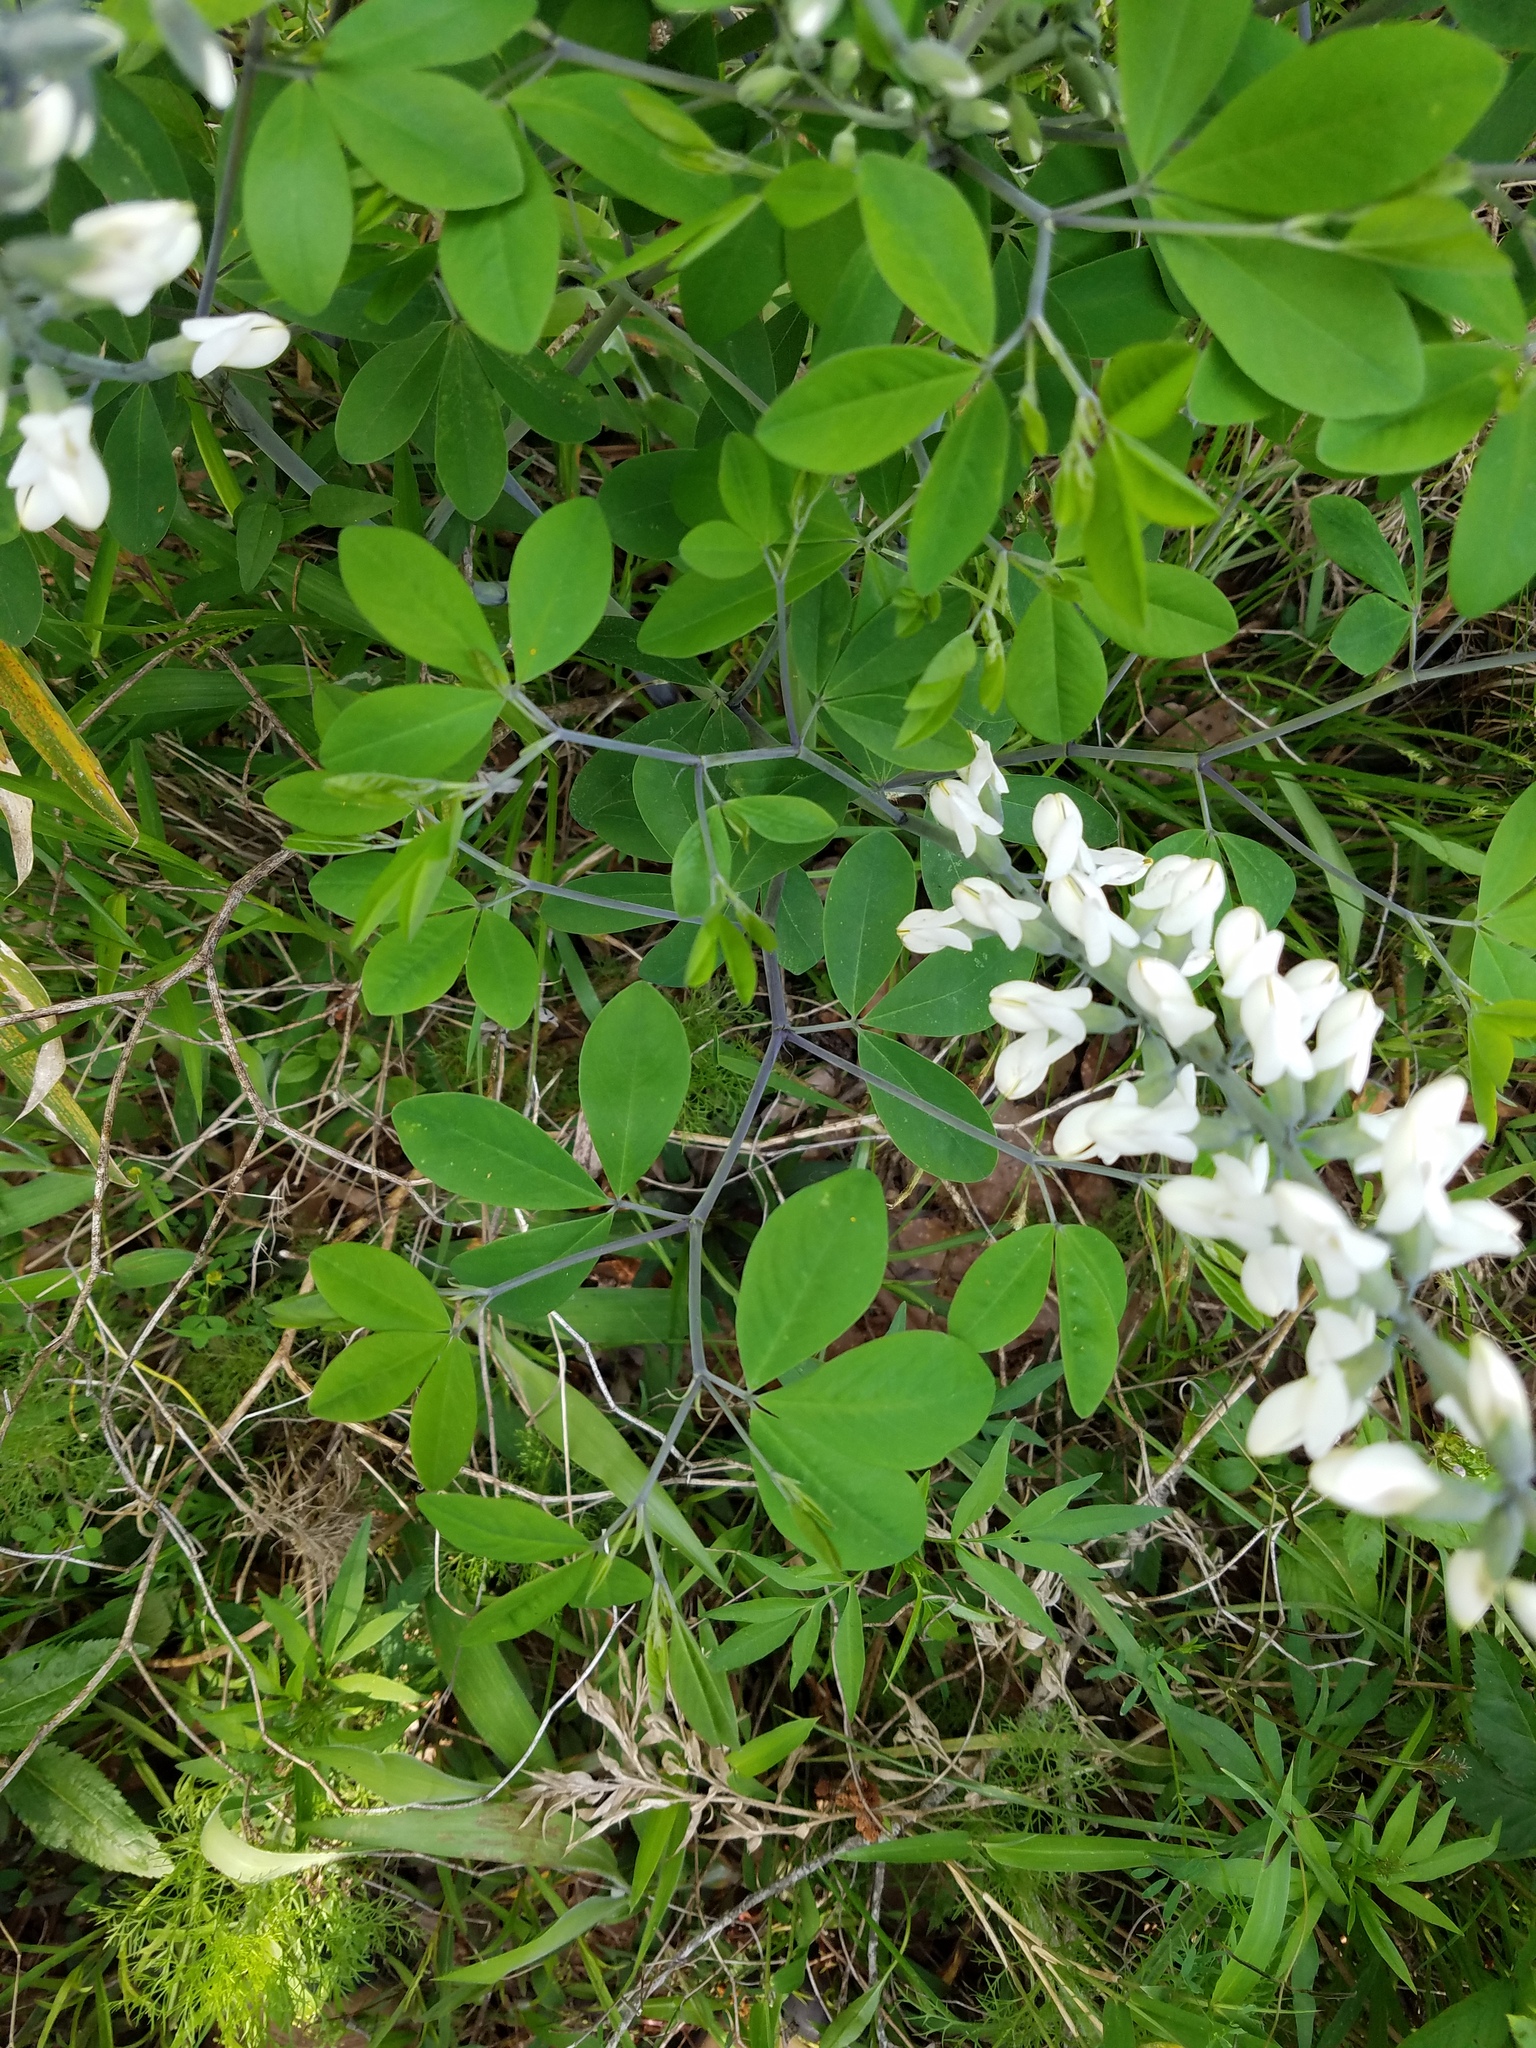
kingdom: Plantae
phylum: Tracheophyta
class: Magnoliopsida
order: Fabales
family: Fabaceae
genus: Baptisia
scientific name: Baptisia alba
